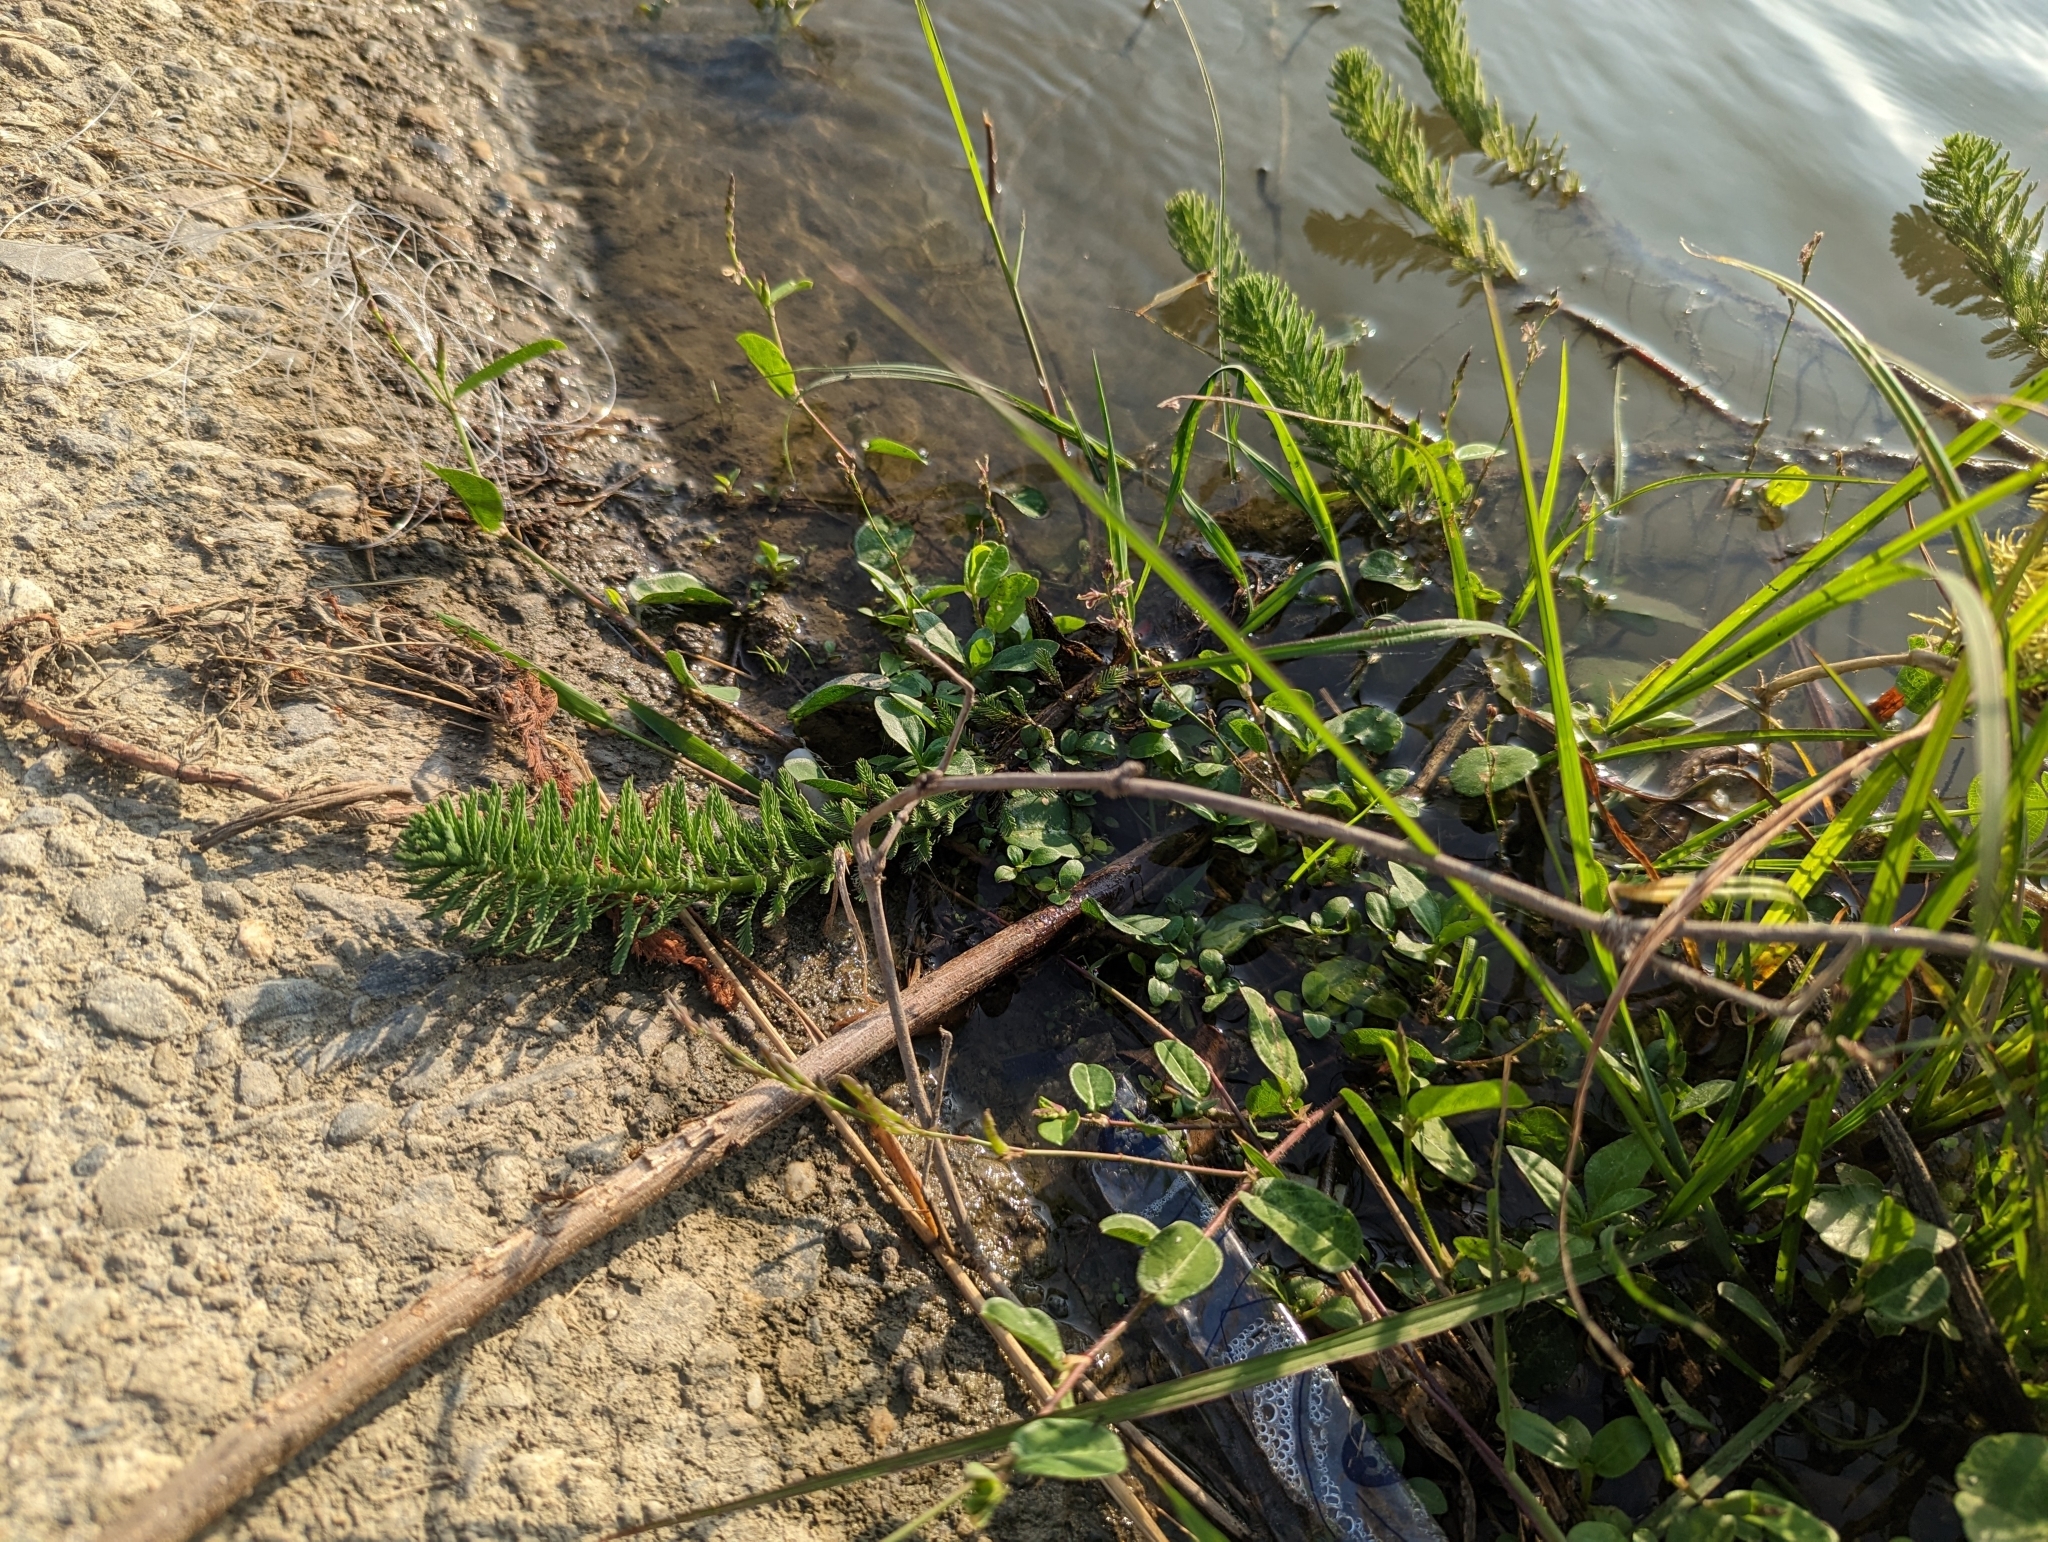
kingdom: Plantae
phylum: Tracheophyta
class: Magnoliopsida
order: Saxifragales
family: Haloragaceae
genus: Myriophyllum
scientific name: Myriophyllum aquaticum
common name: Parrot's feather
